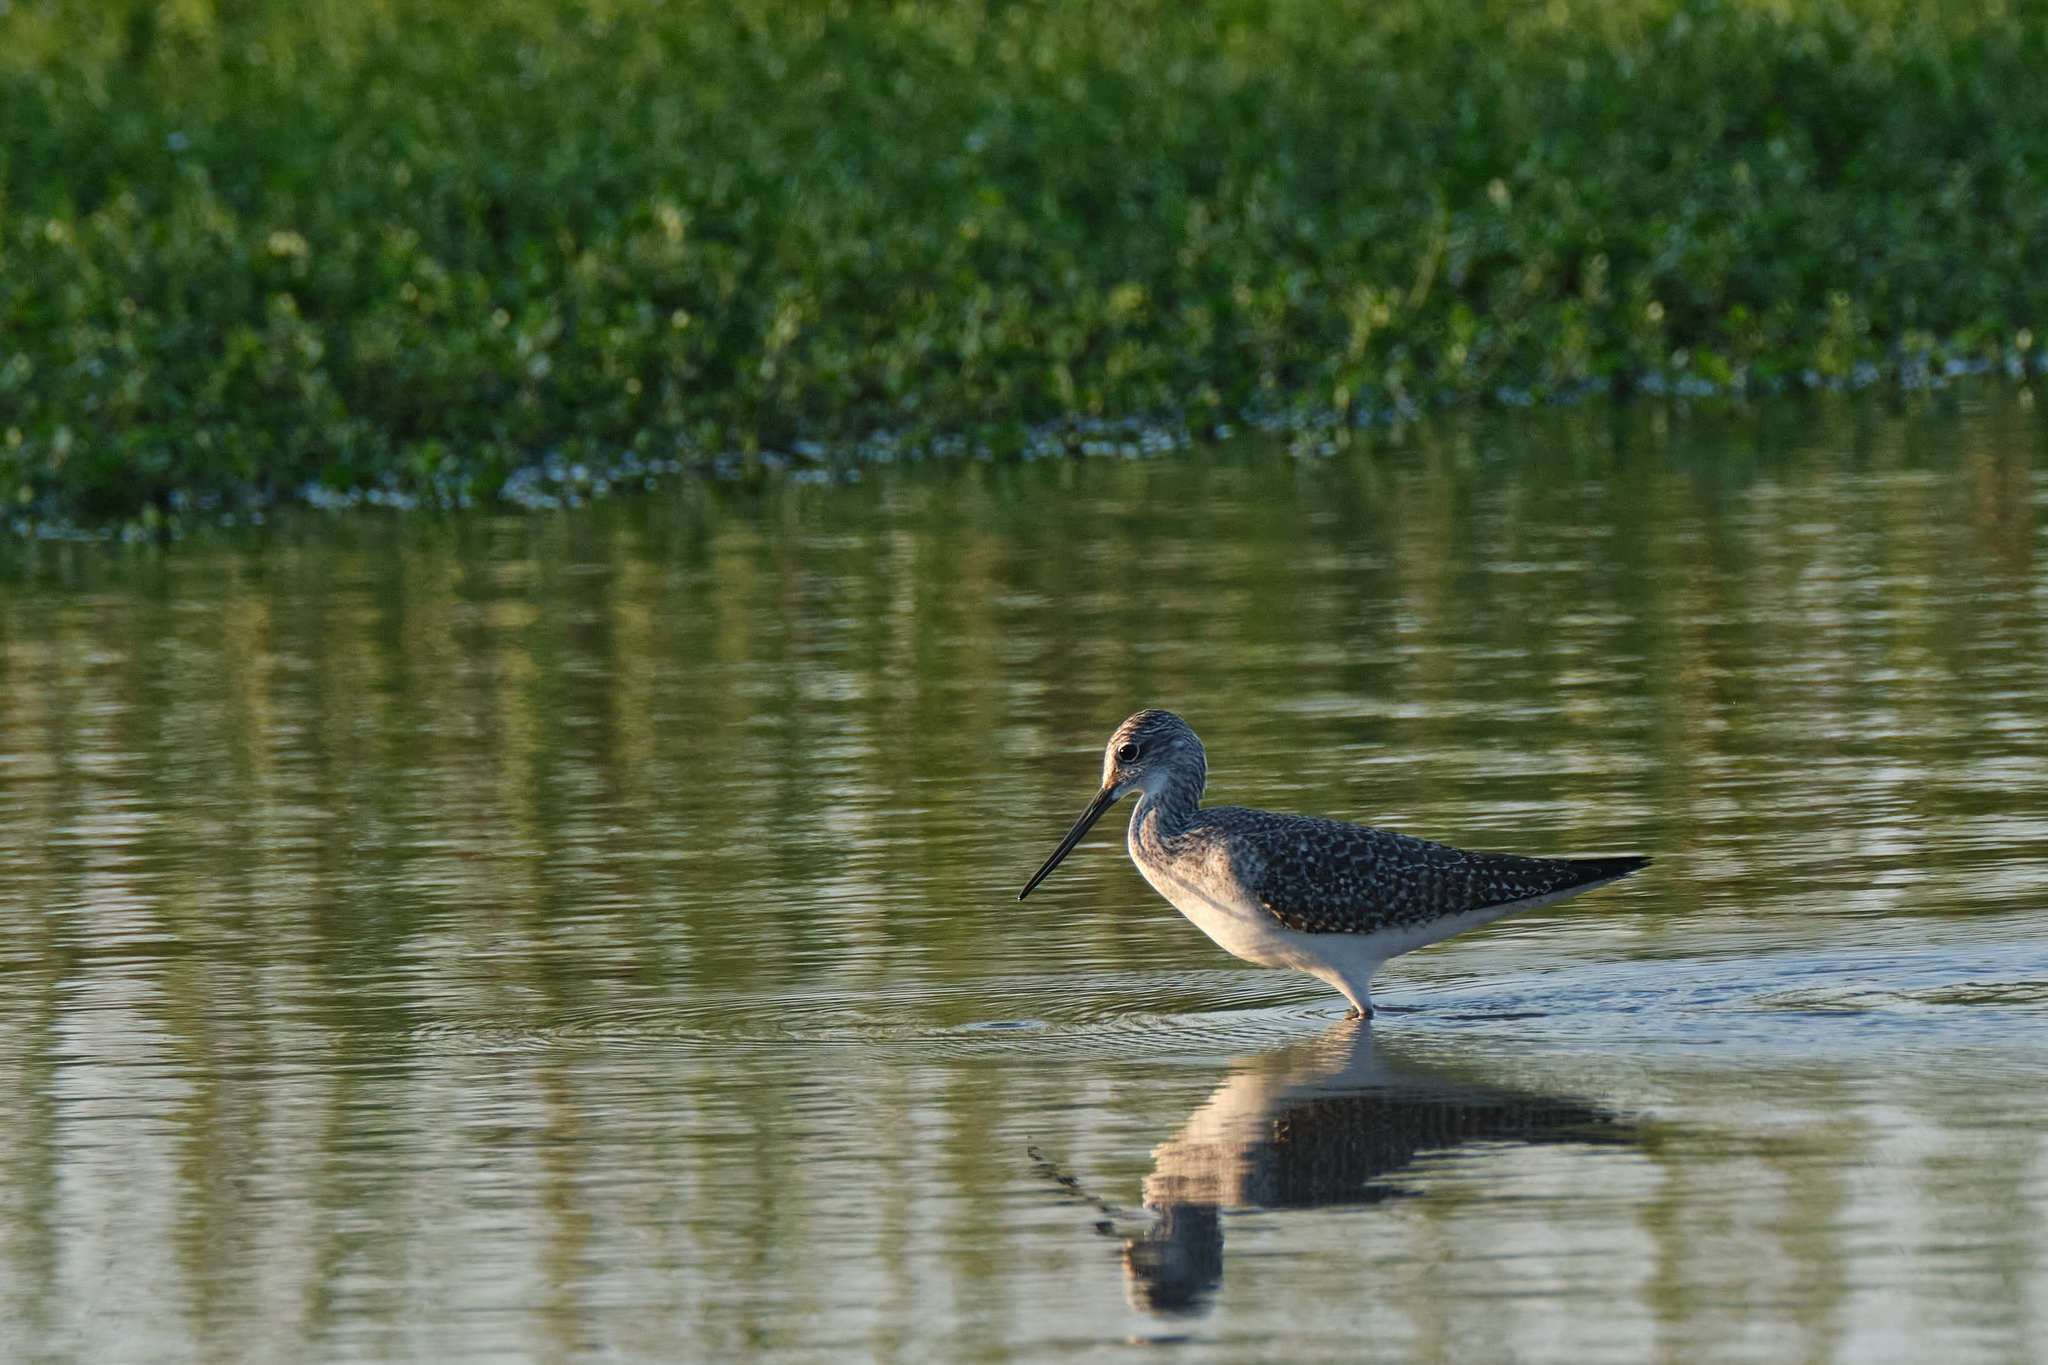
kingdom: Animalia
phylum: Chordata
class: Aves
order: Charadriiformes
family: Scolopacidae
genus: Tringa
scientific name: Tringa melanoleuca
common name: Greater yellowlegs
